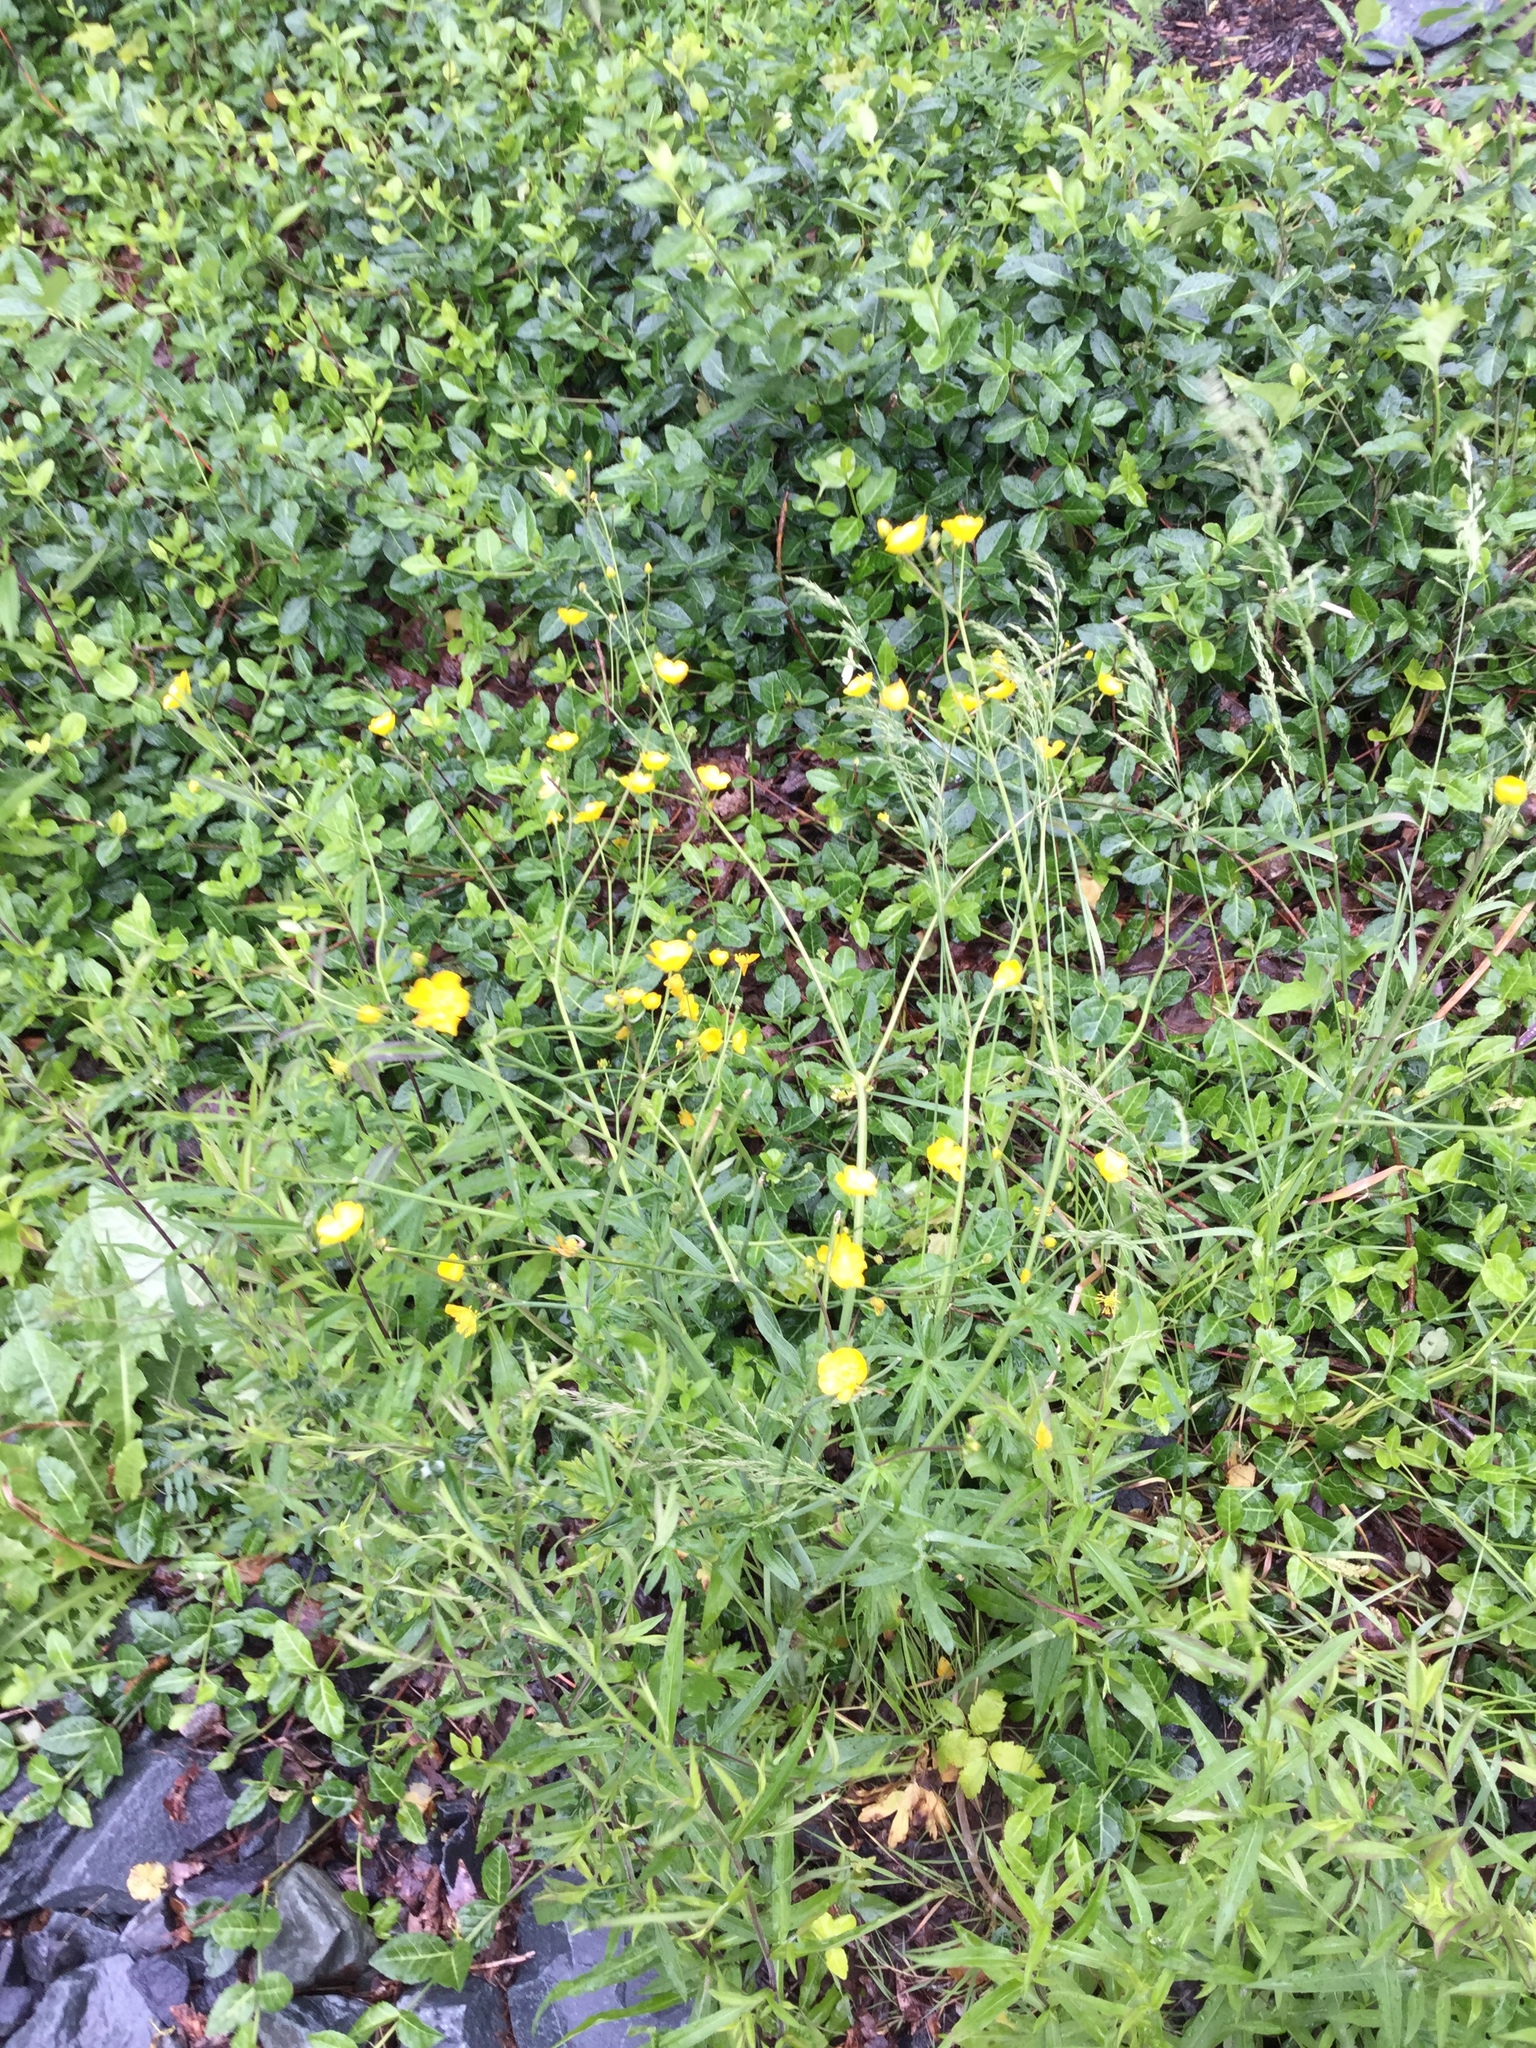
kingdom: Plantae
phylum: Tracheophyta
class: Magnoliopsida
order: Ranunculales
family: Ranunculaceae
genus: Ranunculus
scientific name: Ranunculus acris
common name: Meadow buttercup
